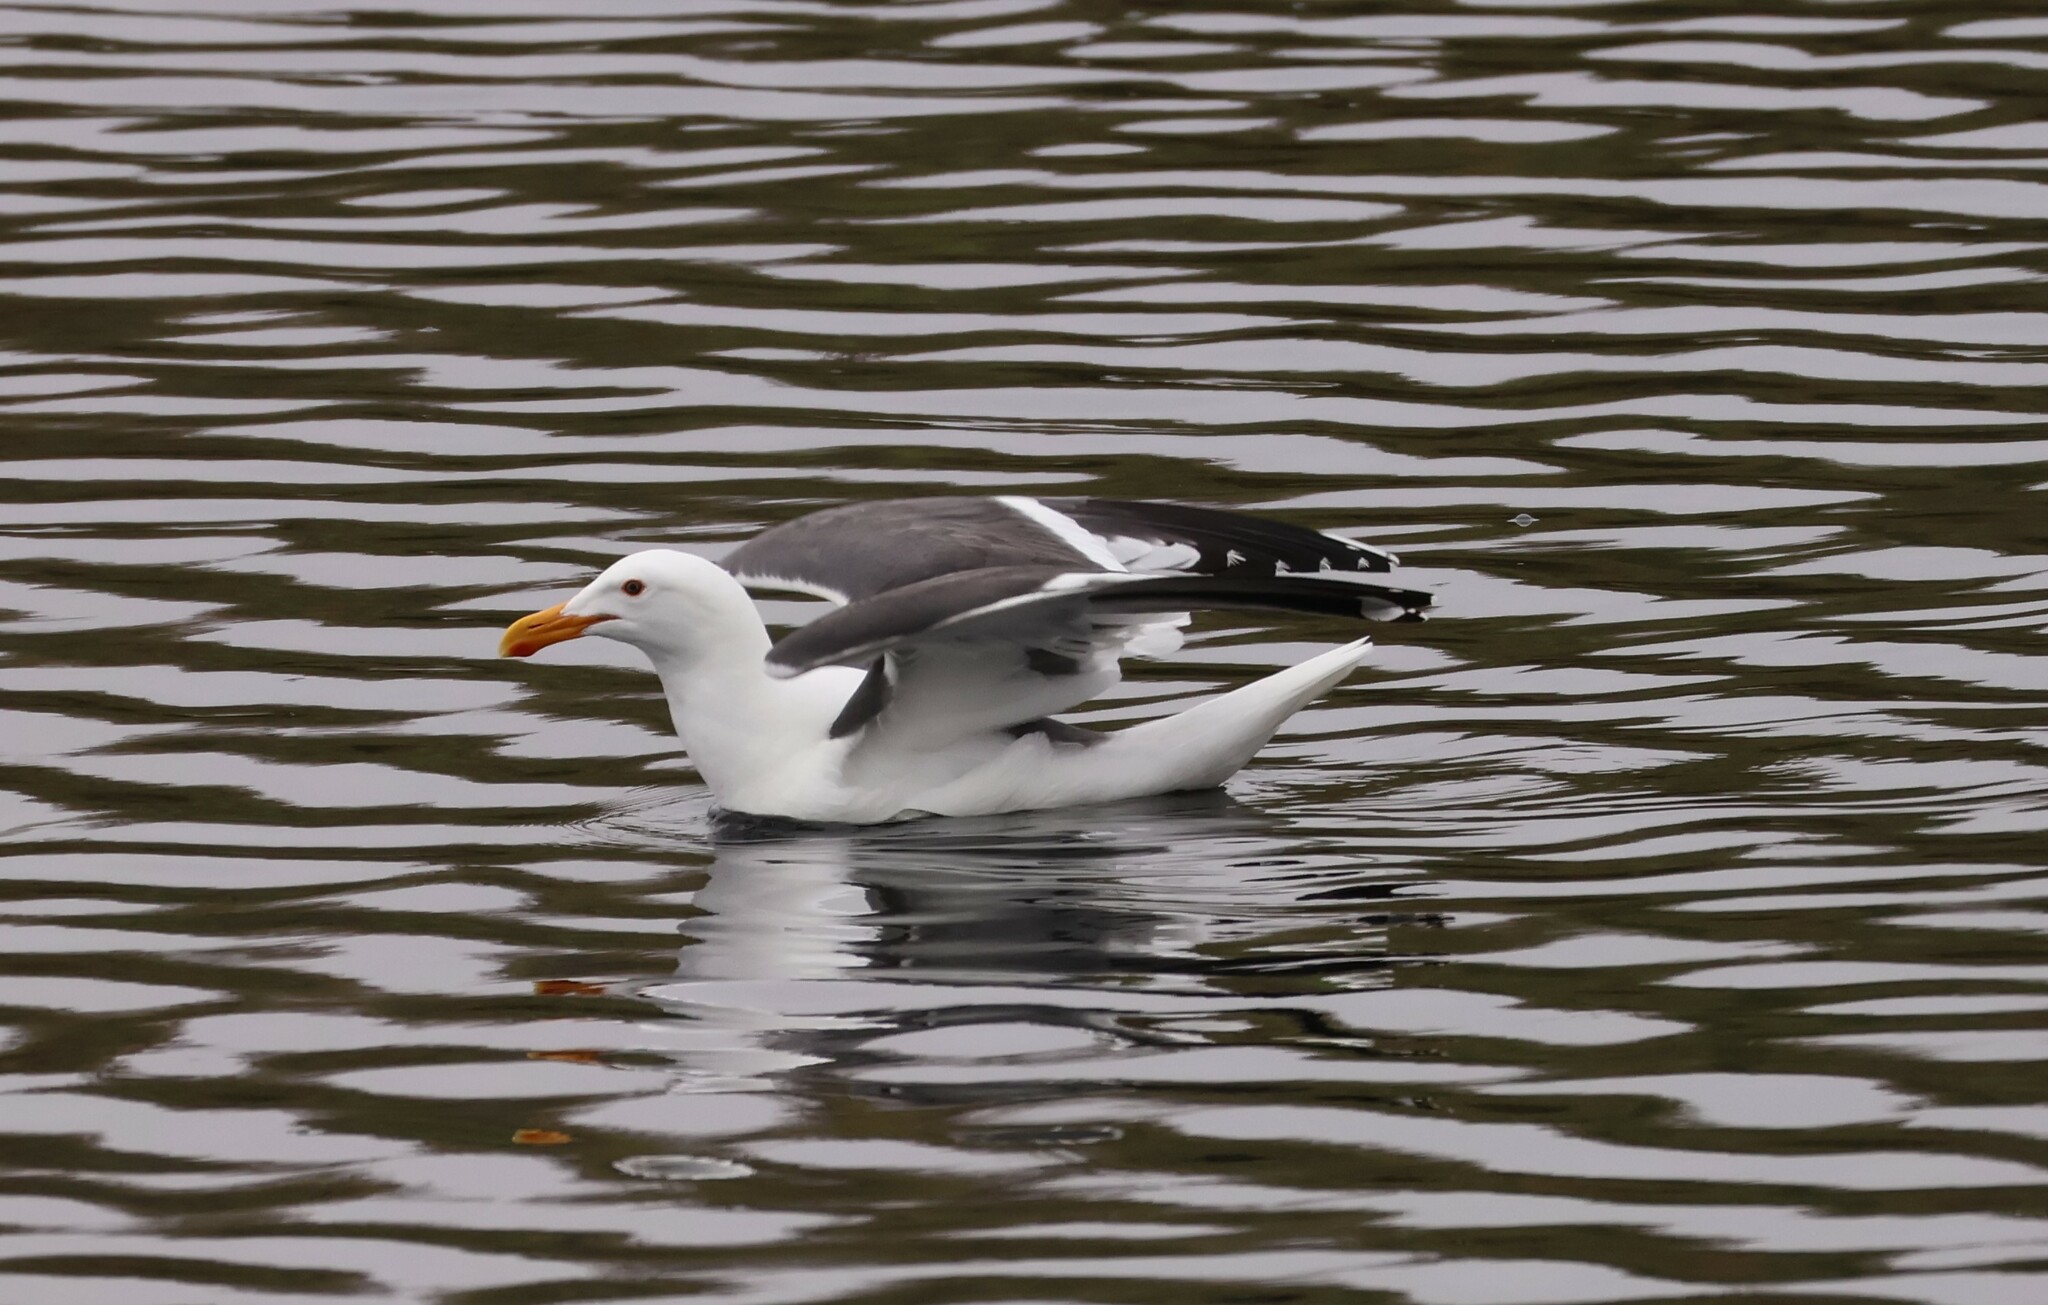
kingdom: Animalia
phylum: Chordata
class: Aves
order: Charadriiformes
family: Laridae
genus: Larus
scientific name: Larus occidentalis
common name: Western gull
